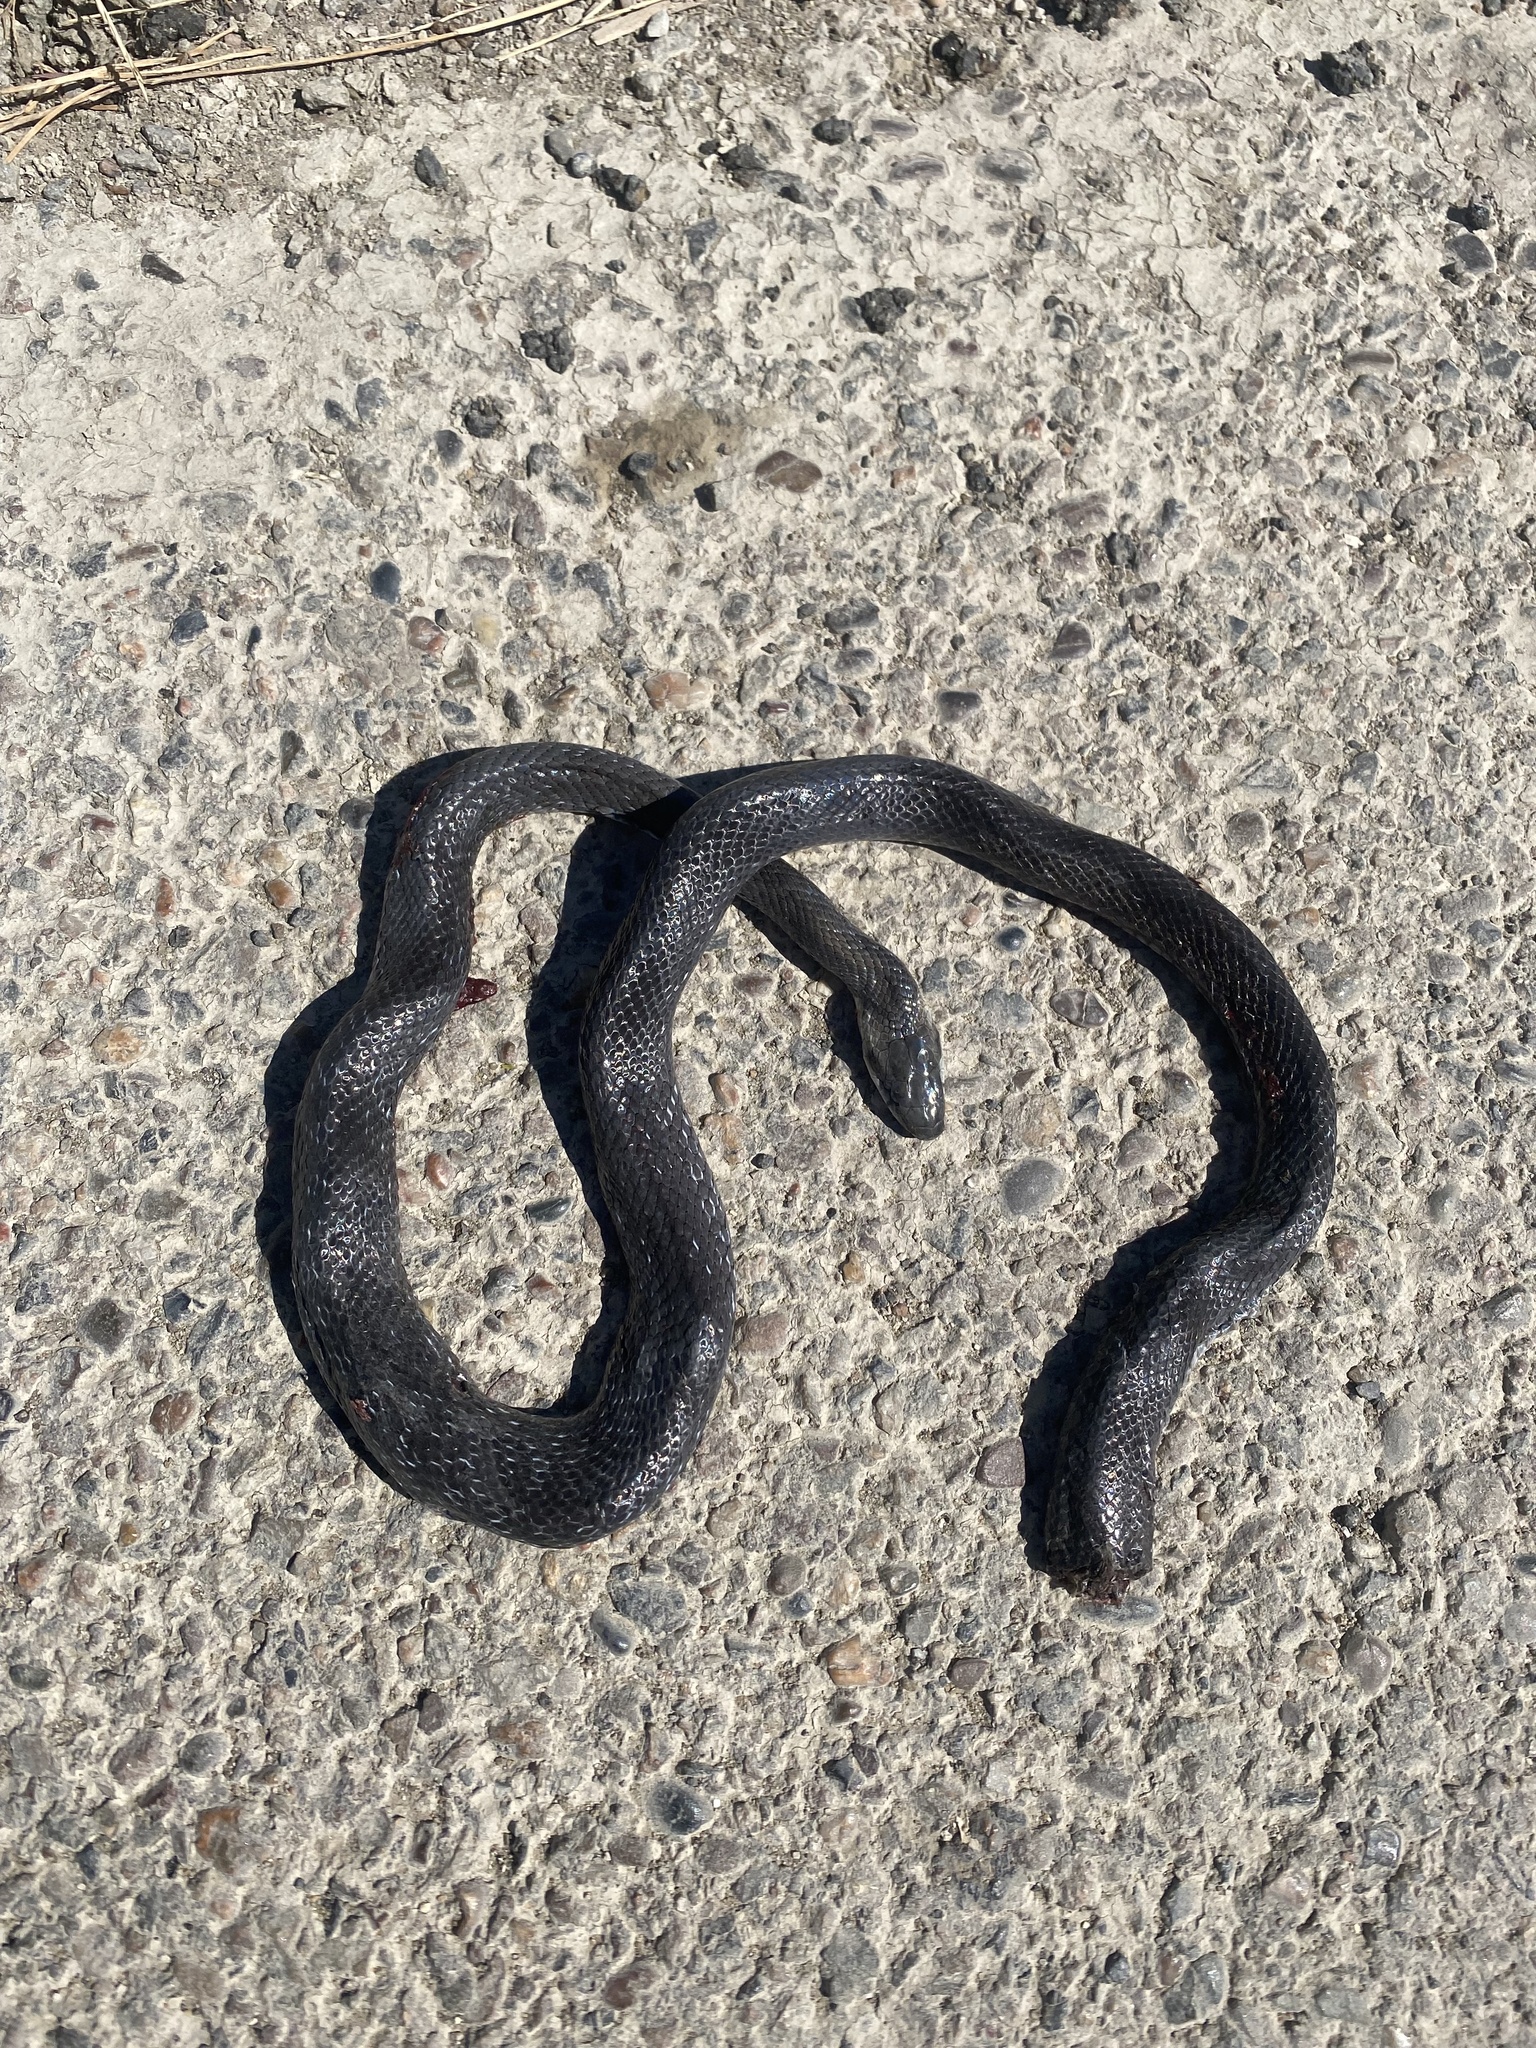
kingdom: Animalia
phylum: Chordata
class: Squamata
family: Colubridae
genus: Zamenis
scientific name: Zamenis longissimus
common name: Aesculapean snake
